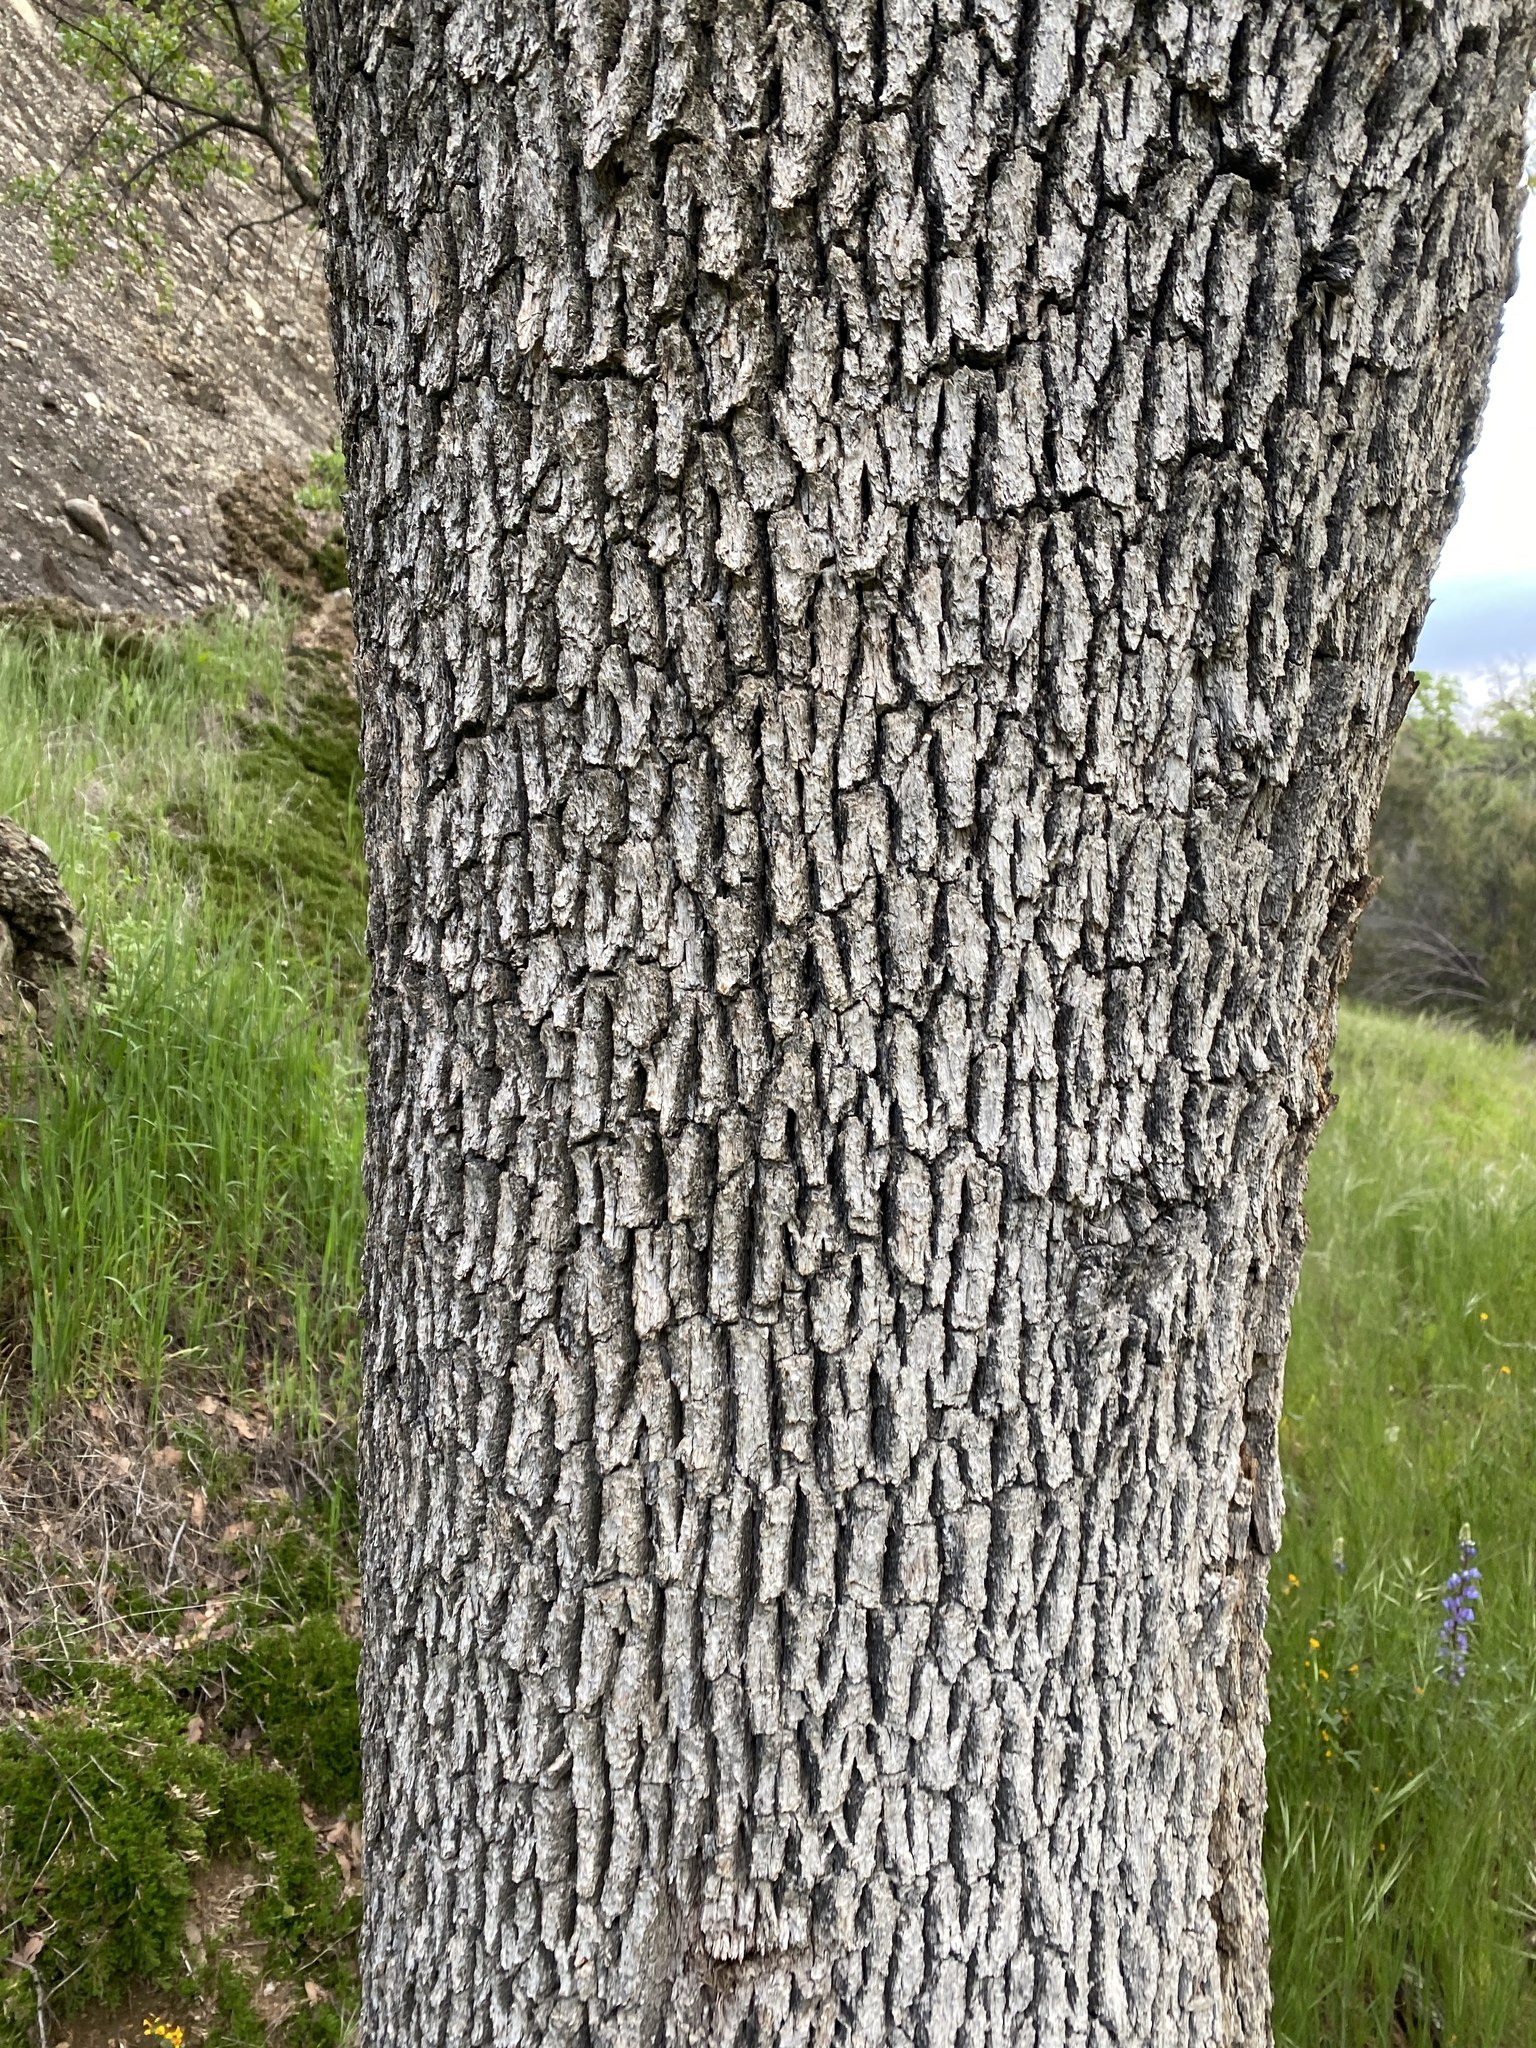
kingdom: Plantae
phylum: Tracheophyta
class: Magnoliopsida
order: Fagales
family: Fagaceae
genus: Quercus
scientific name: Quercus douglasii
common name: Blue oak
